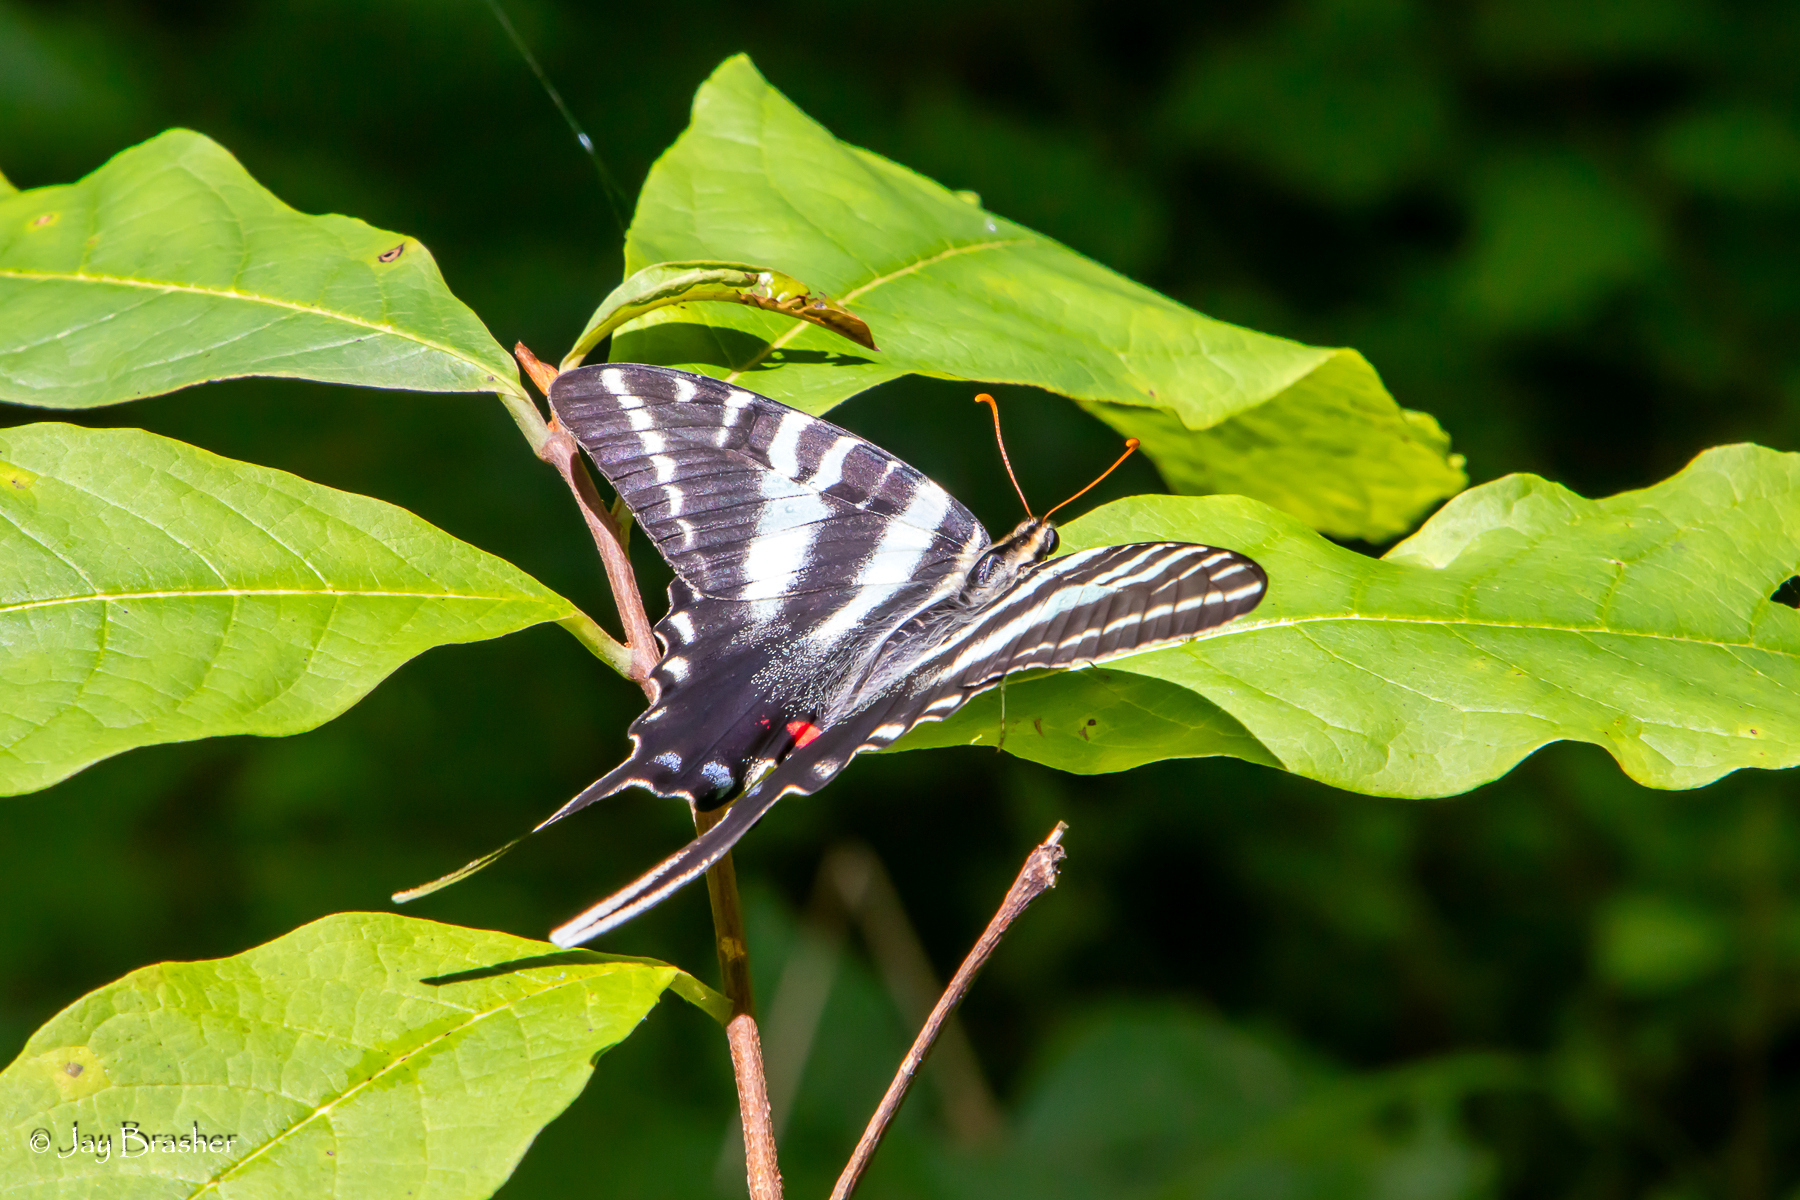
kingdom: Animalia
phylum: Arthropoda
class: Insecta
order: Lepidoptera
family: Papilionidae
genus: Protographium
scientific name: Protographium marcellus
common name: Zebra swallowtail
